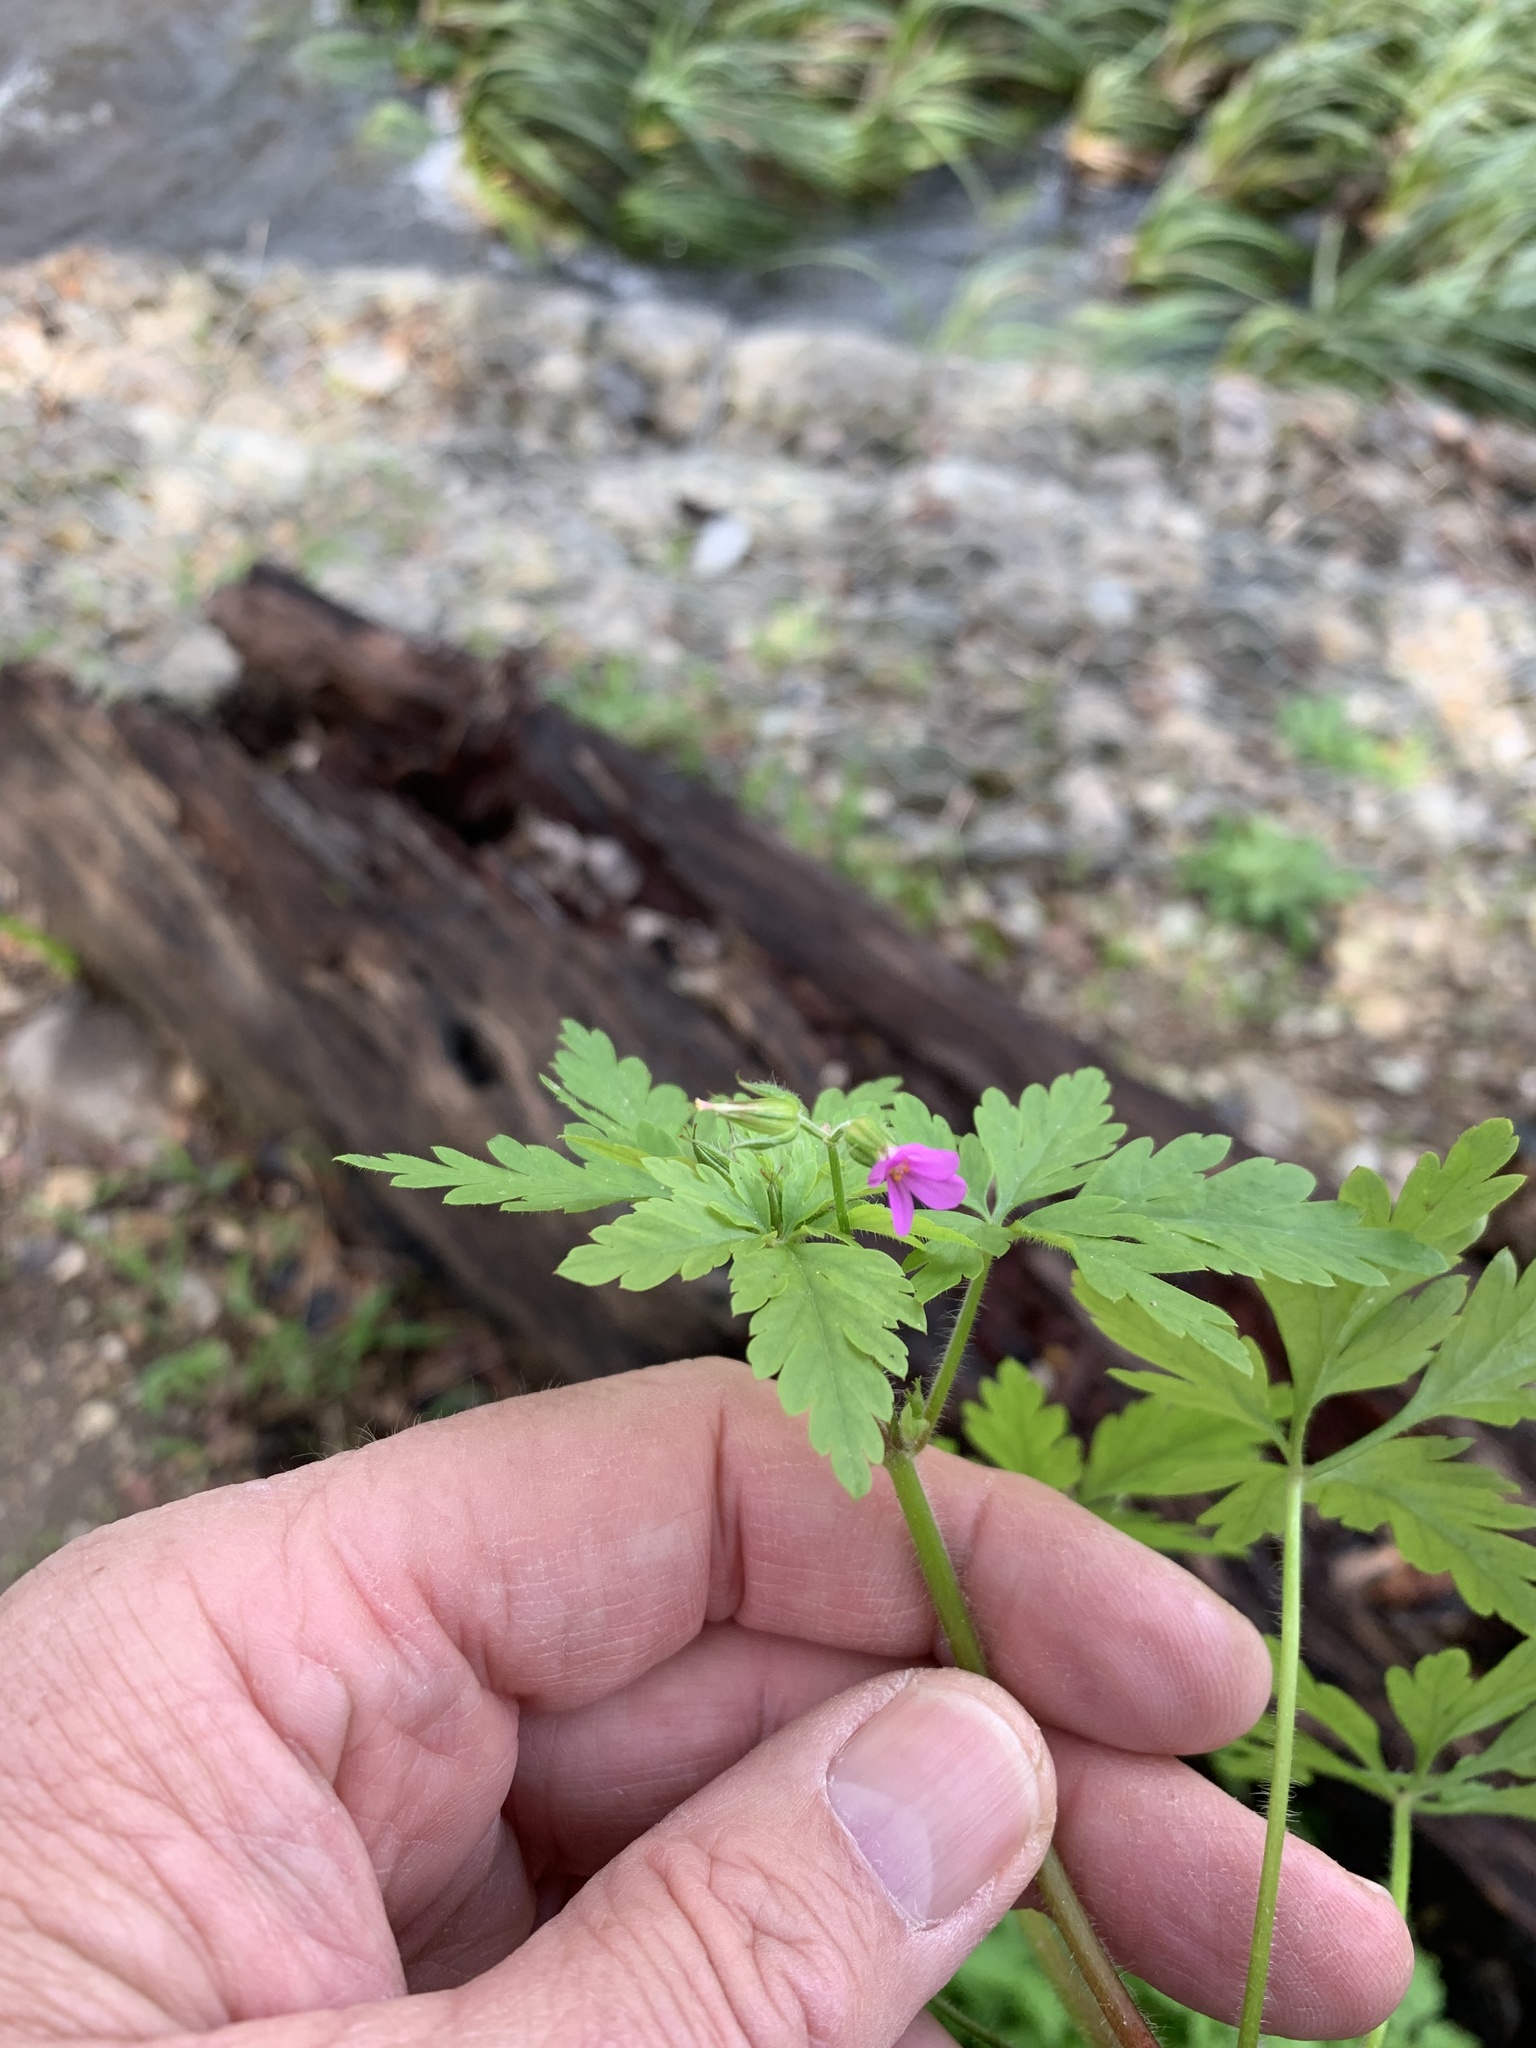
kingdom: Plantae
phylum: Tracheophyta
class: Magnoliopsida
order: Geraniales
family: Geraniaceae
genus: Geranium
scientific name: Geranium purpureum
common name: Little-robin
